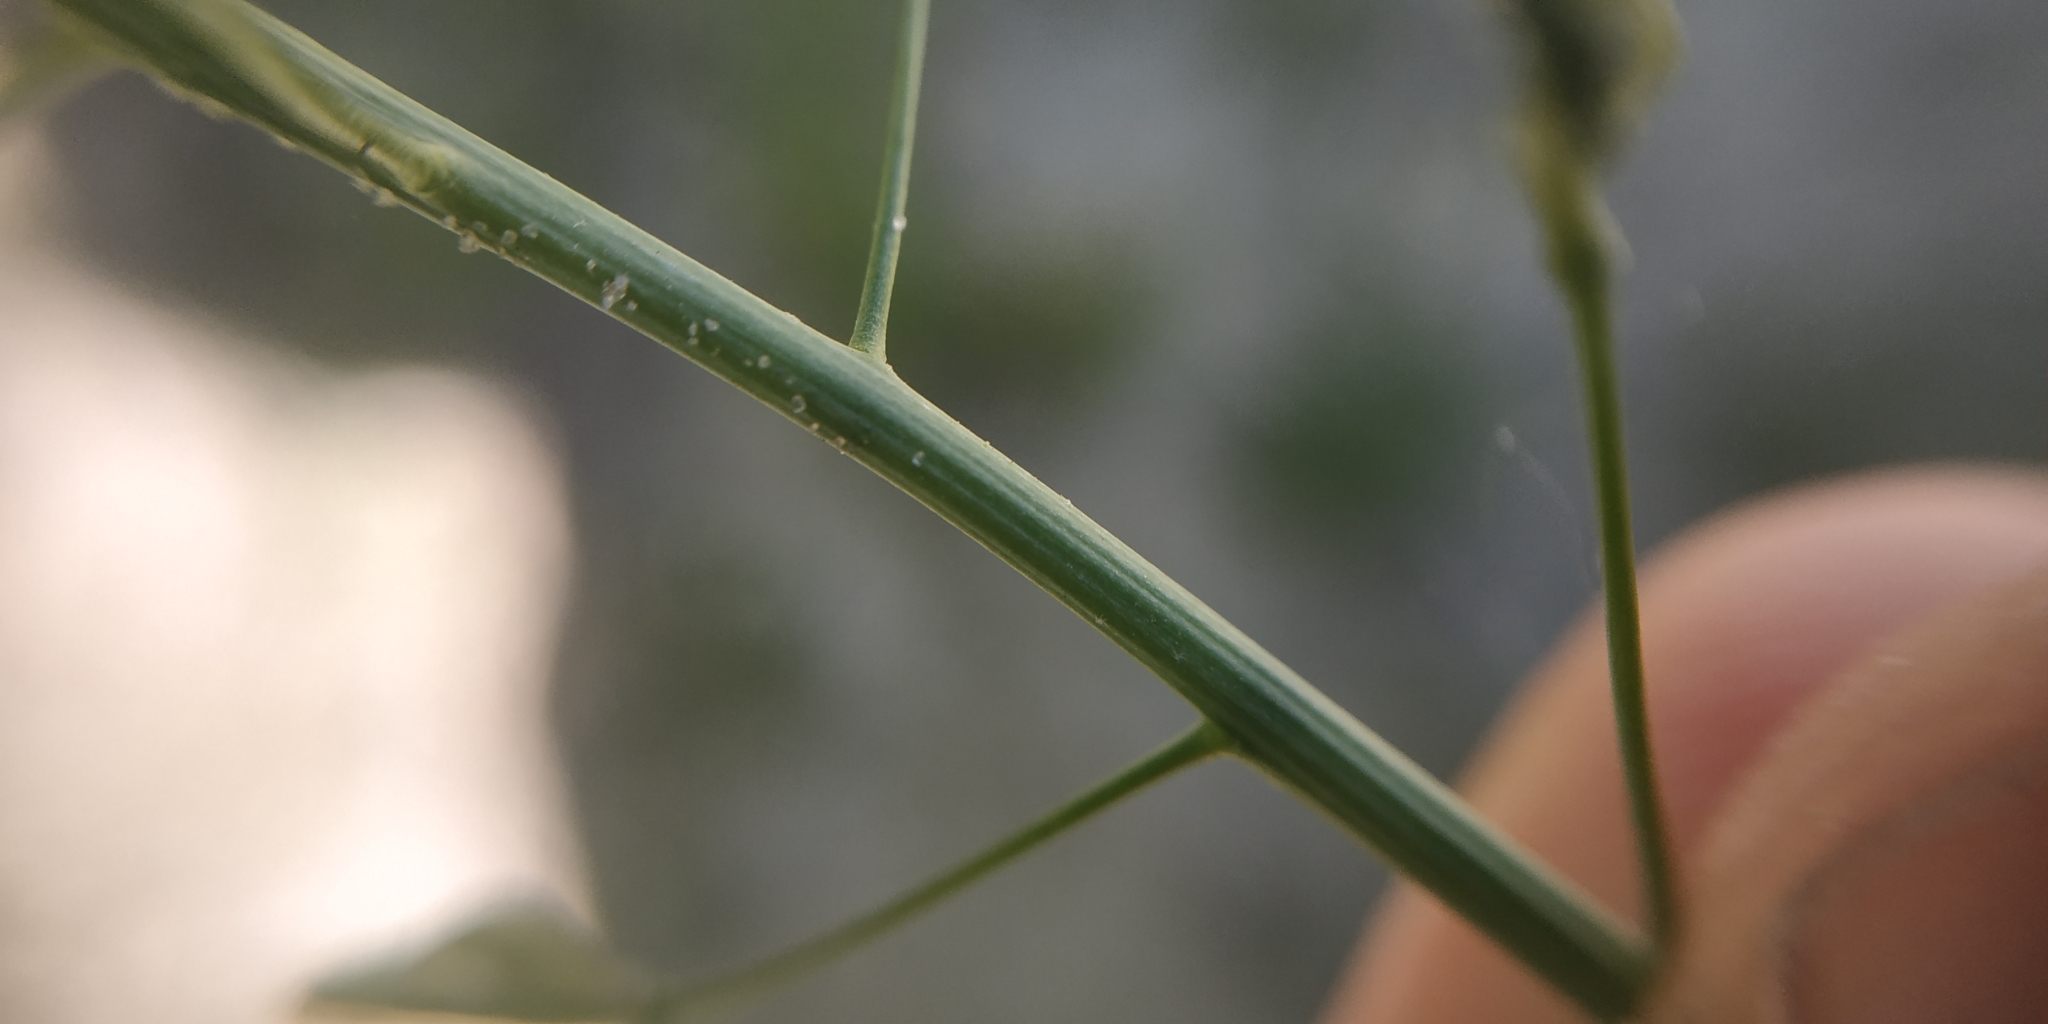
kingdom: Plantae
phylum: Tracheophyta
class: Magnoliopsida
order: Brassicales
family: Brassicaceae
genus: Capsella
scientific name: Capsella bursa-pastoris
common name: Shepherd's purse
